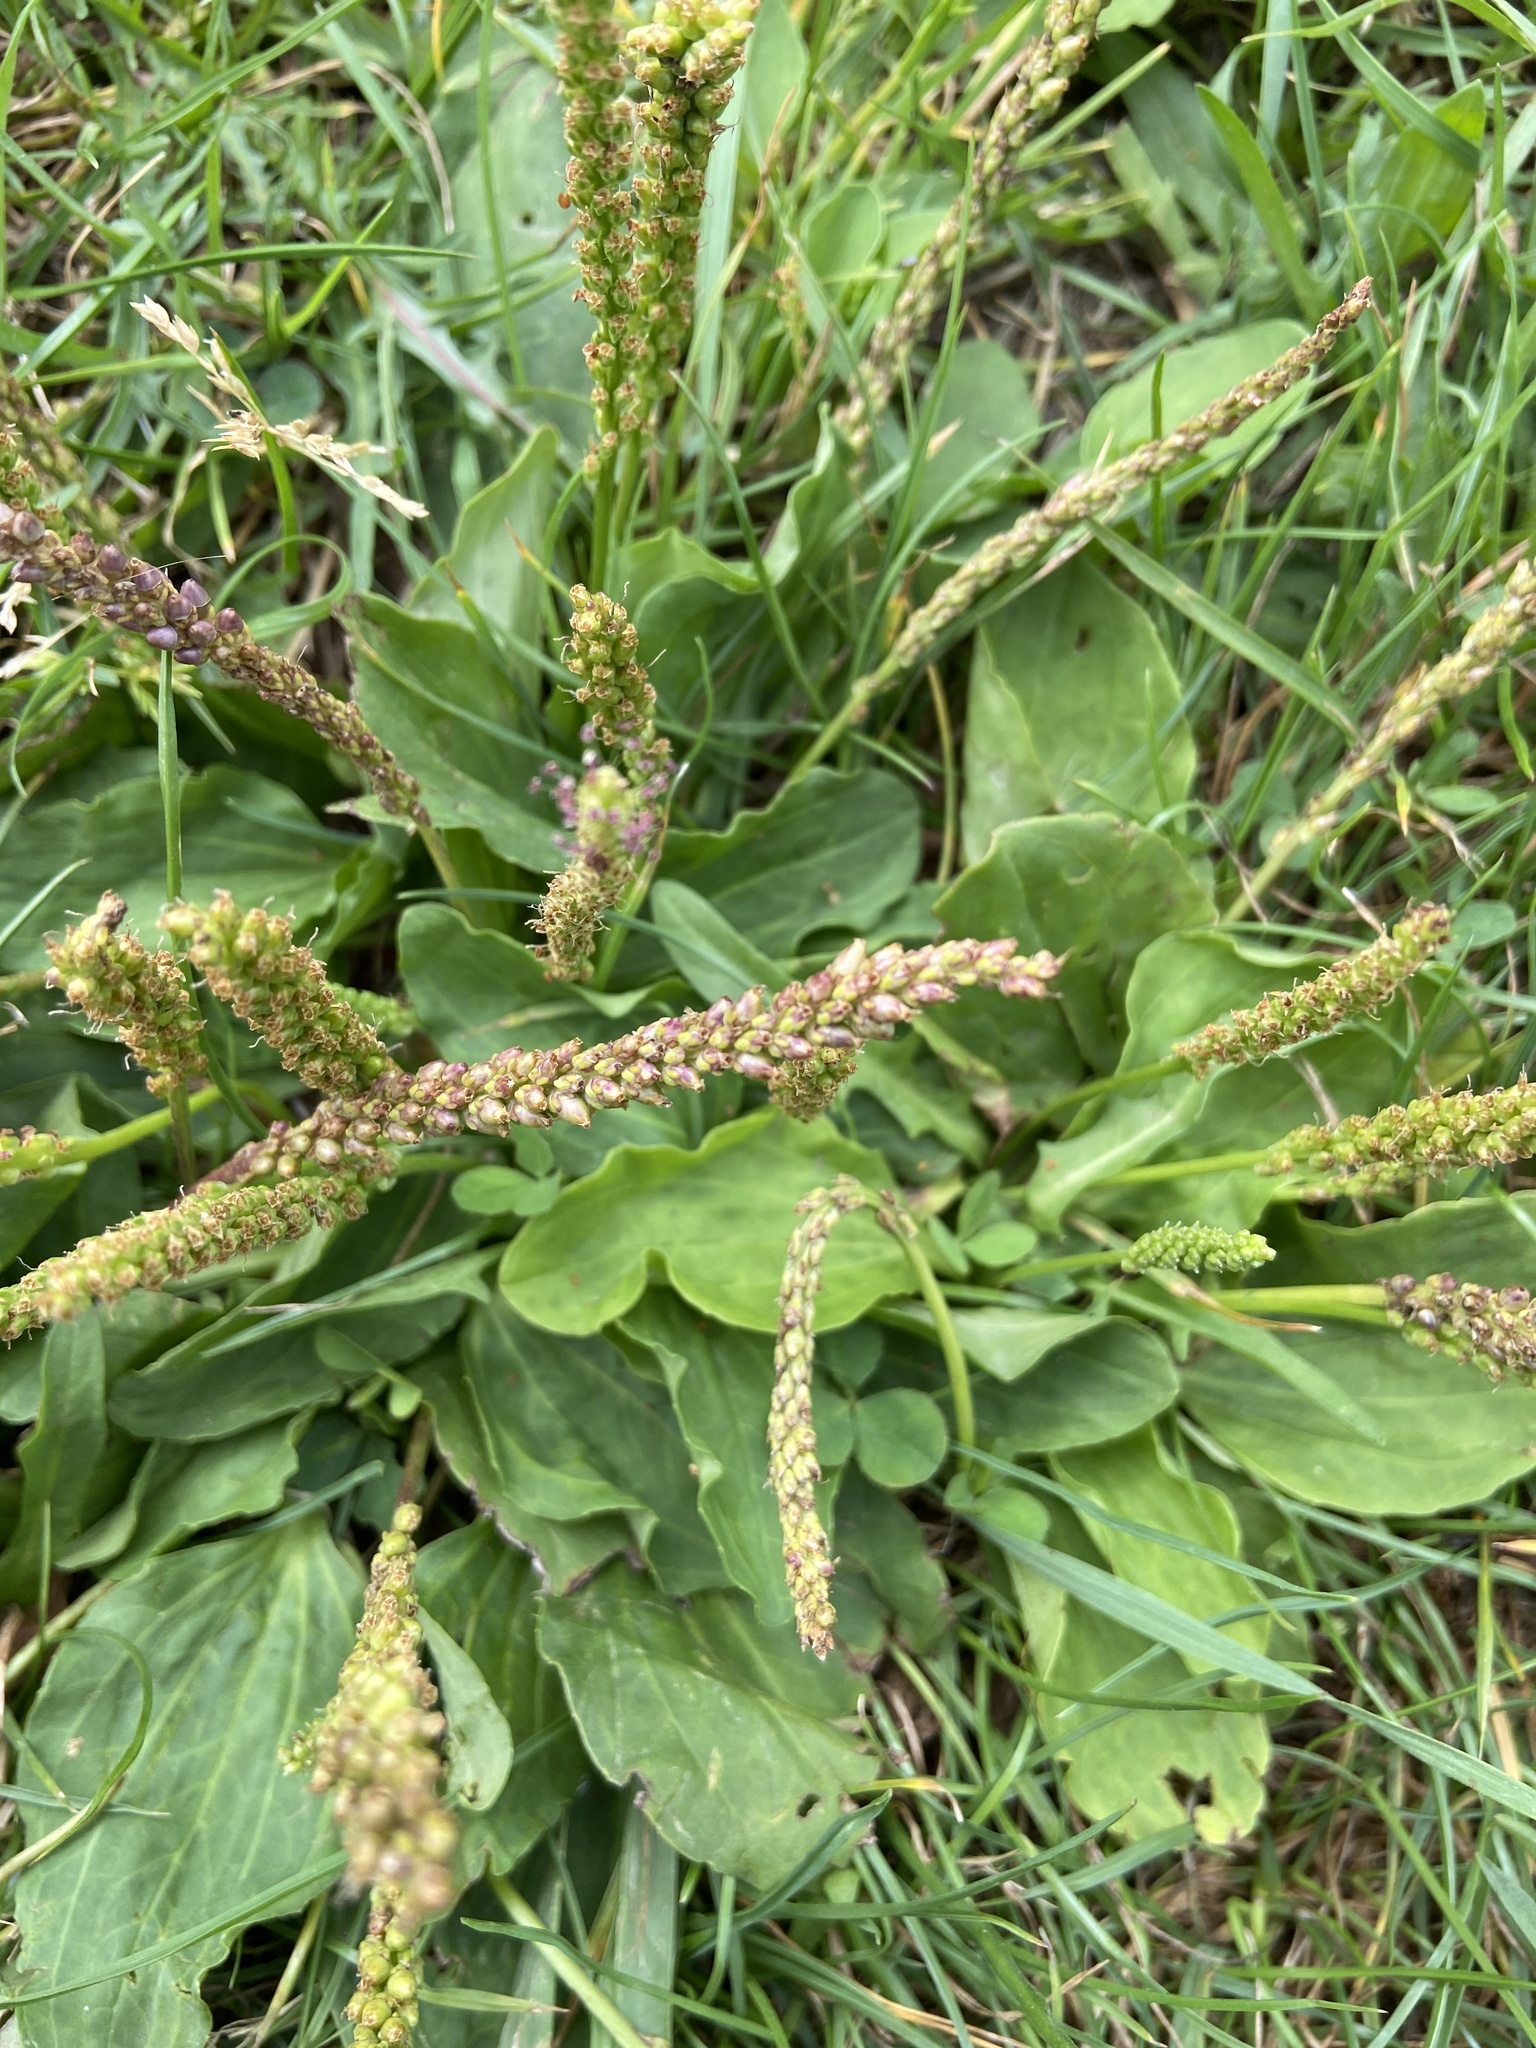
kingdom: Plantae
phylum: Tracheophyta
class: Magnoliopsida
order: Lamiales
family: Plantaginaceae
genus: Plantago
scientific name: Plantago major
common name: Common plantain
